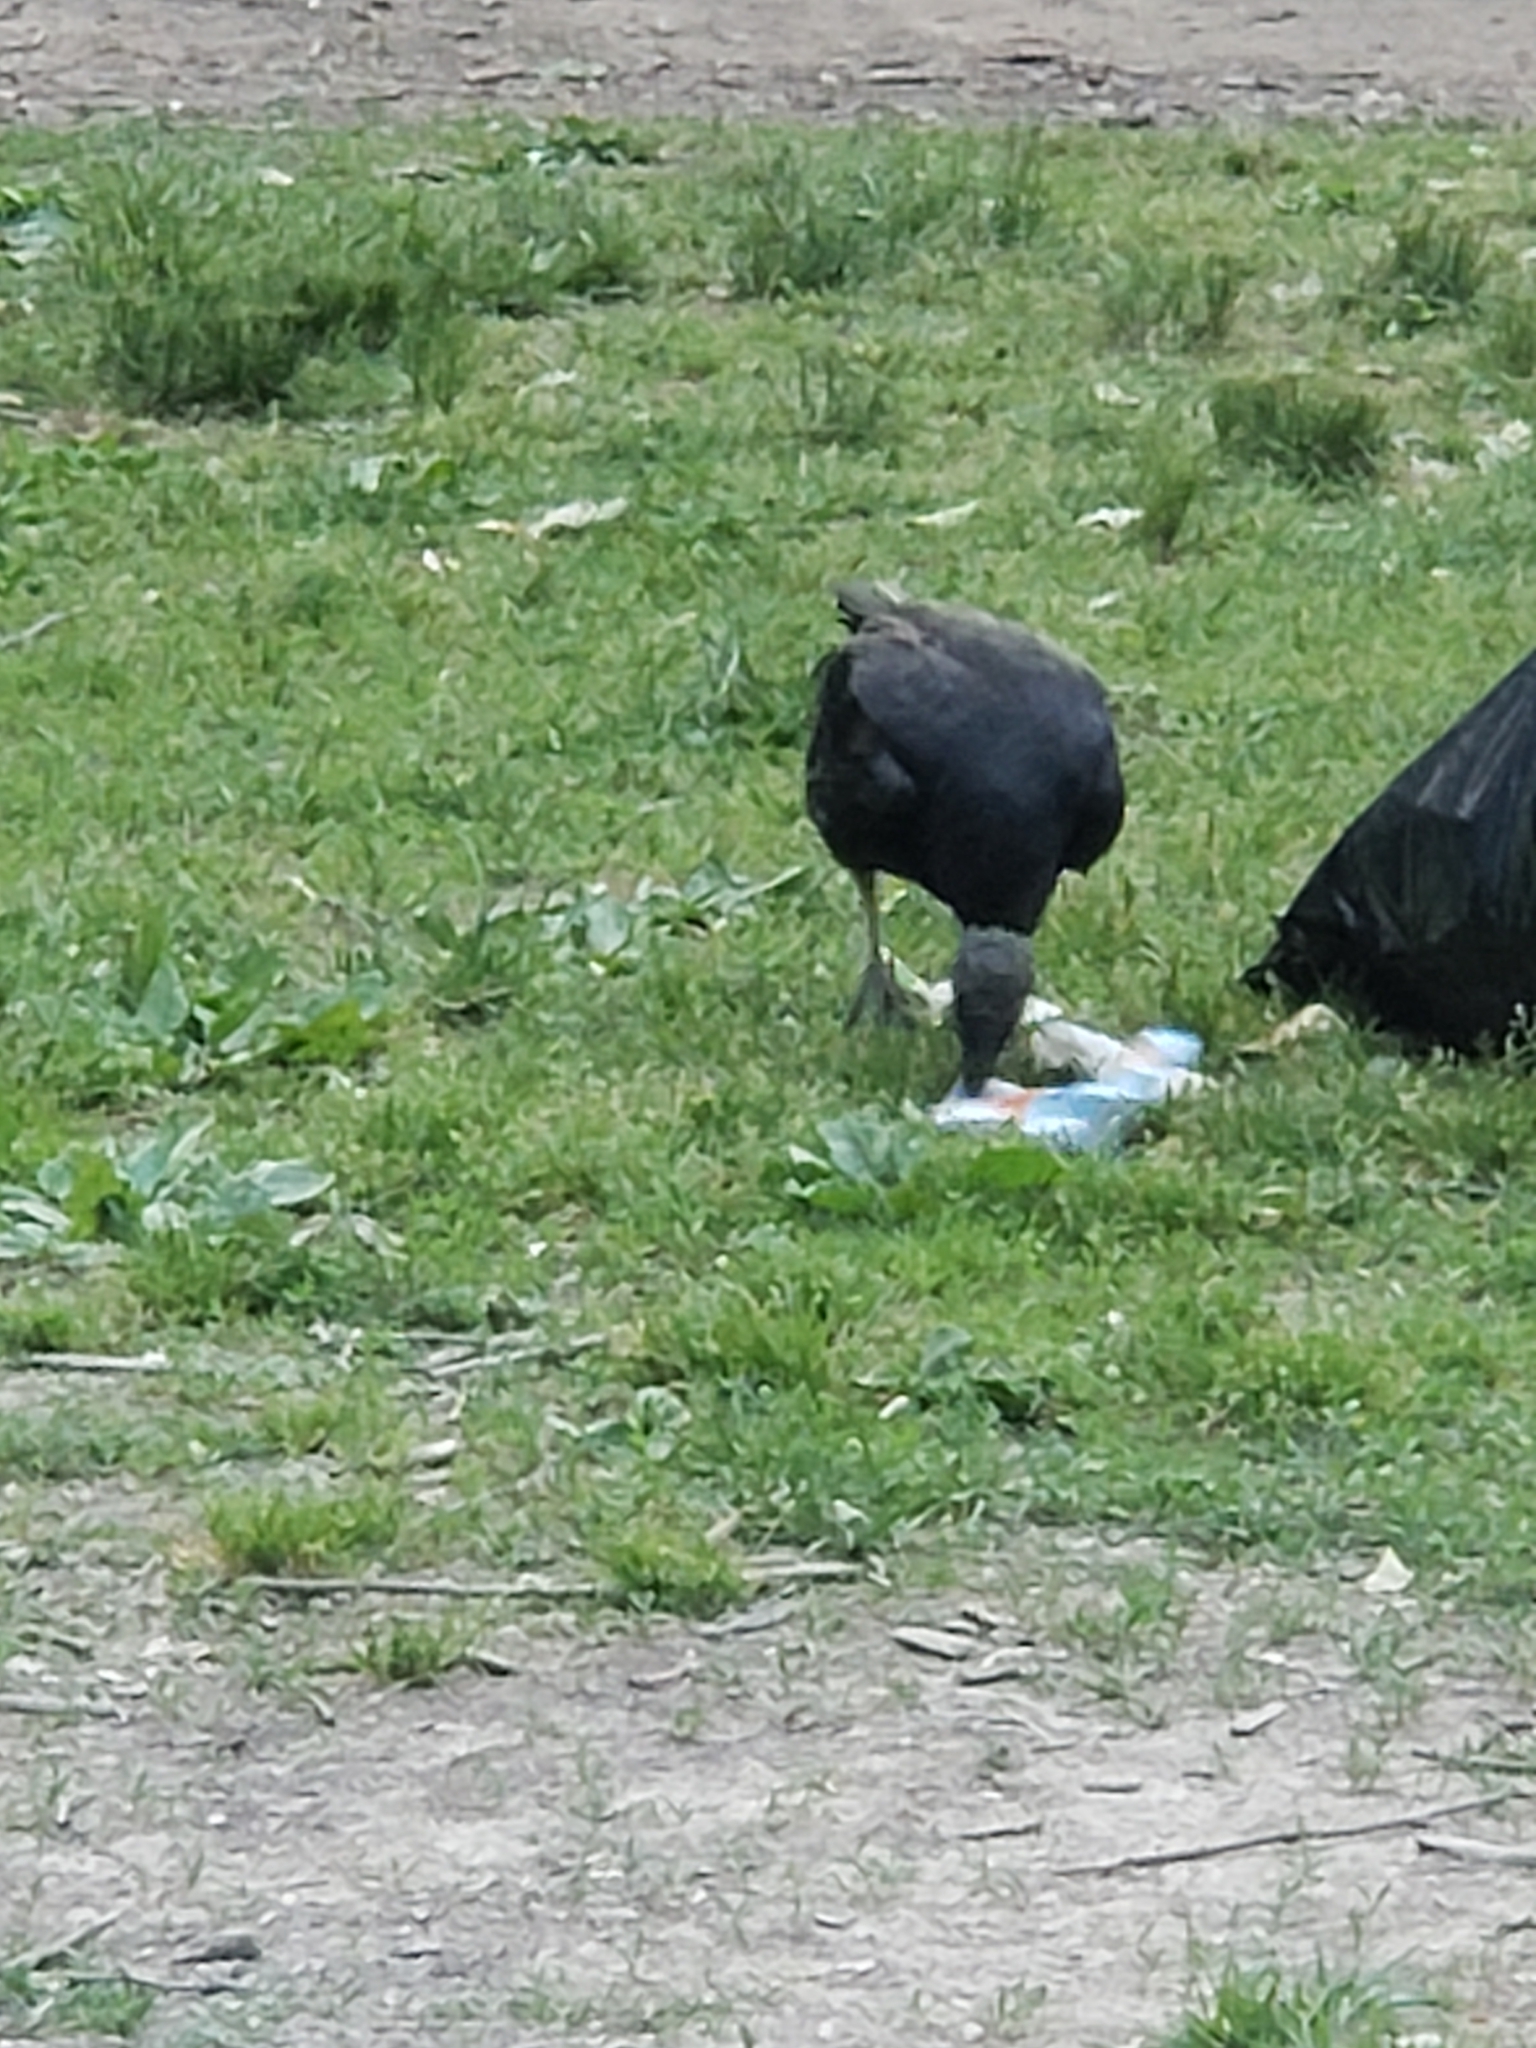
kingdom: Animalia
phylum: Chordata
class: Aves
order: Accipitriformes
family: Cathartidae
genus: Coragyps
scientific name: Coragyps atratus
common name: Black vulture
